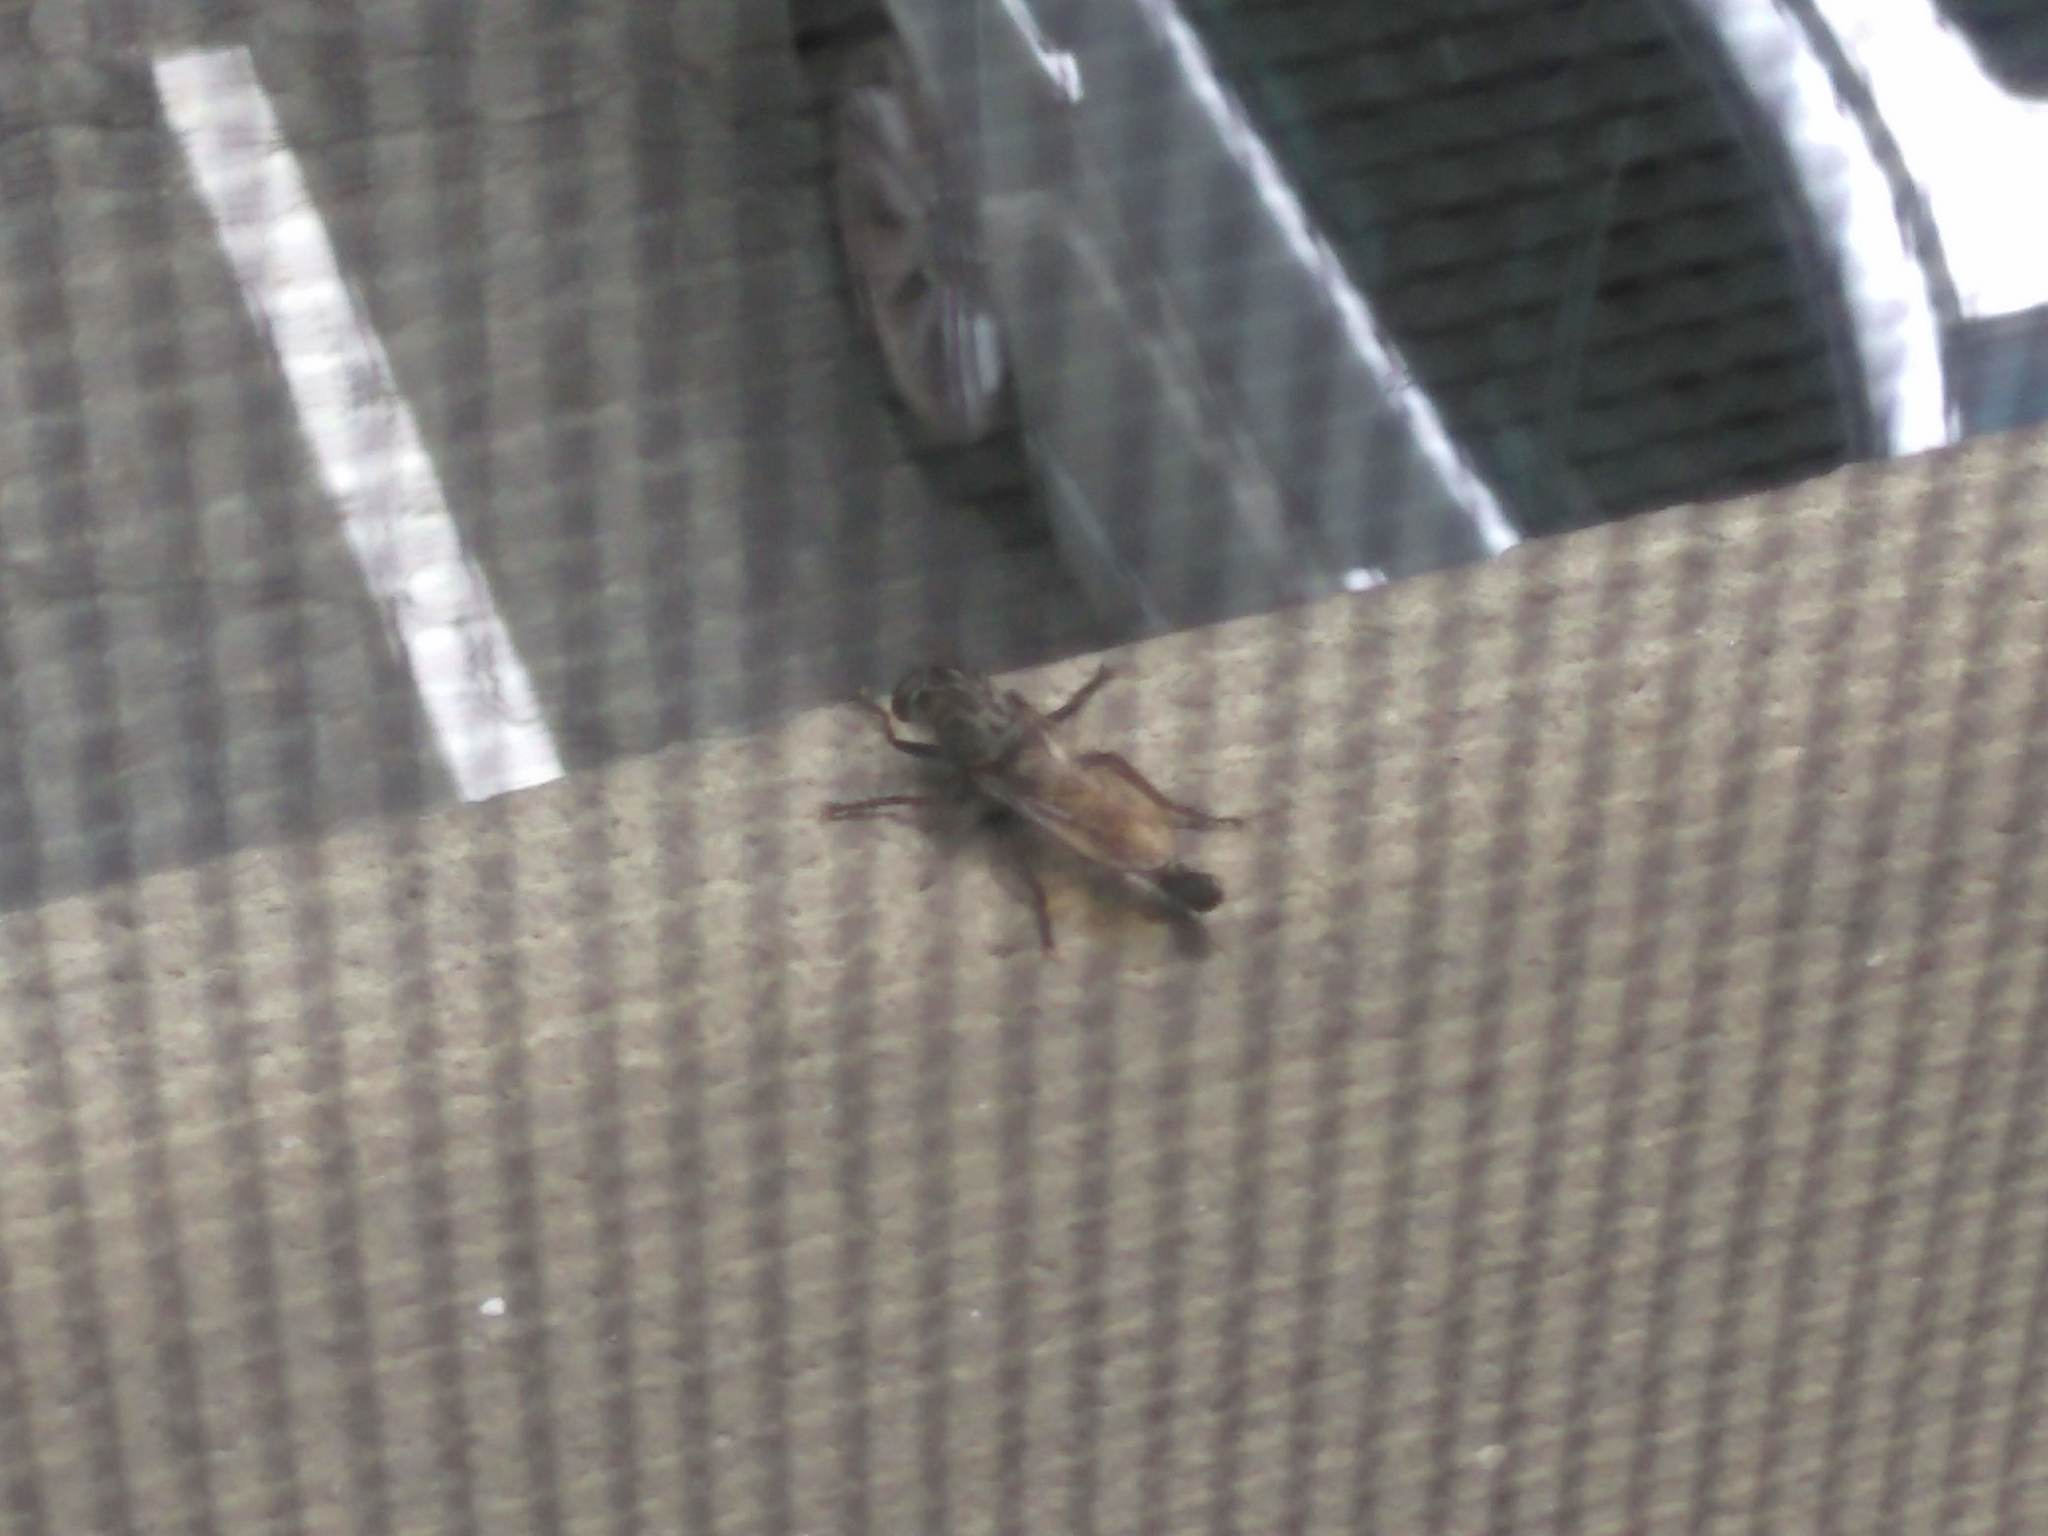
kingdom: Animalia
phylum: Arthropoda
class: Insecta
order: Diptera
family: Asilidae
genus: Efferia
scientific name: Efferia
